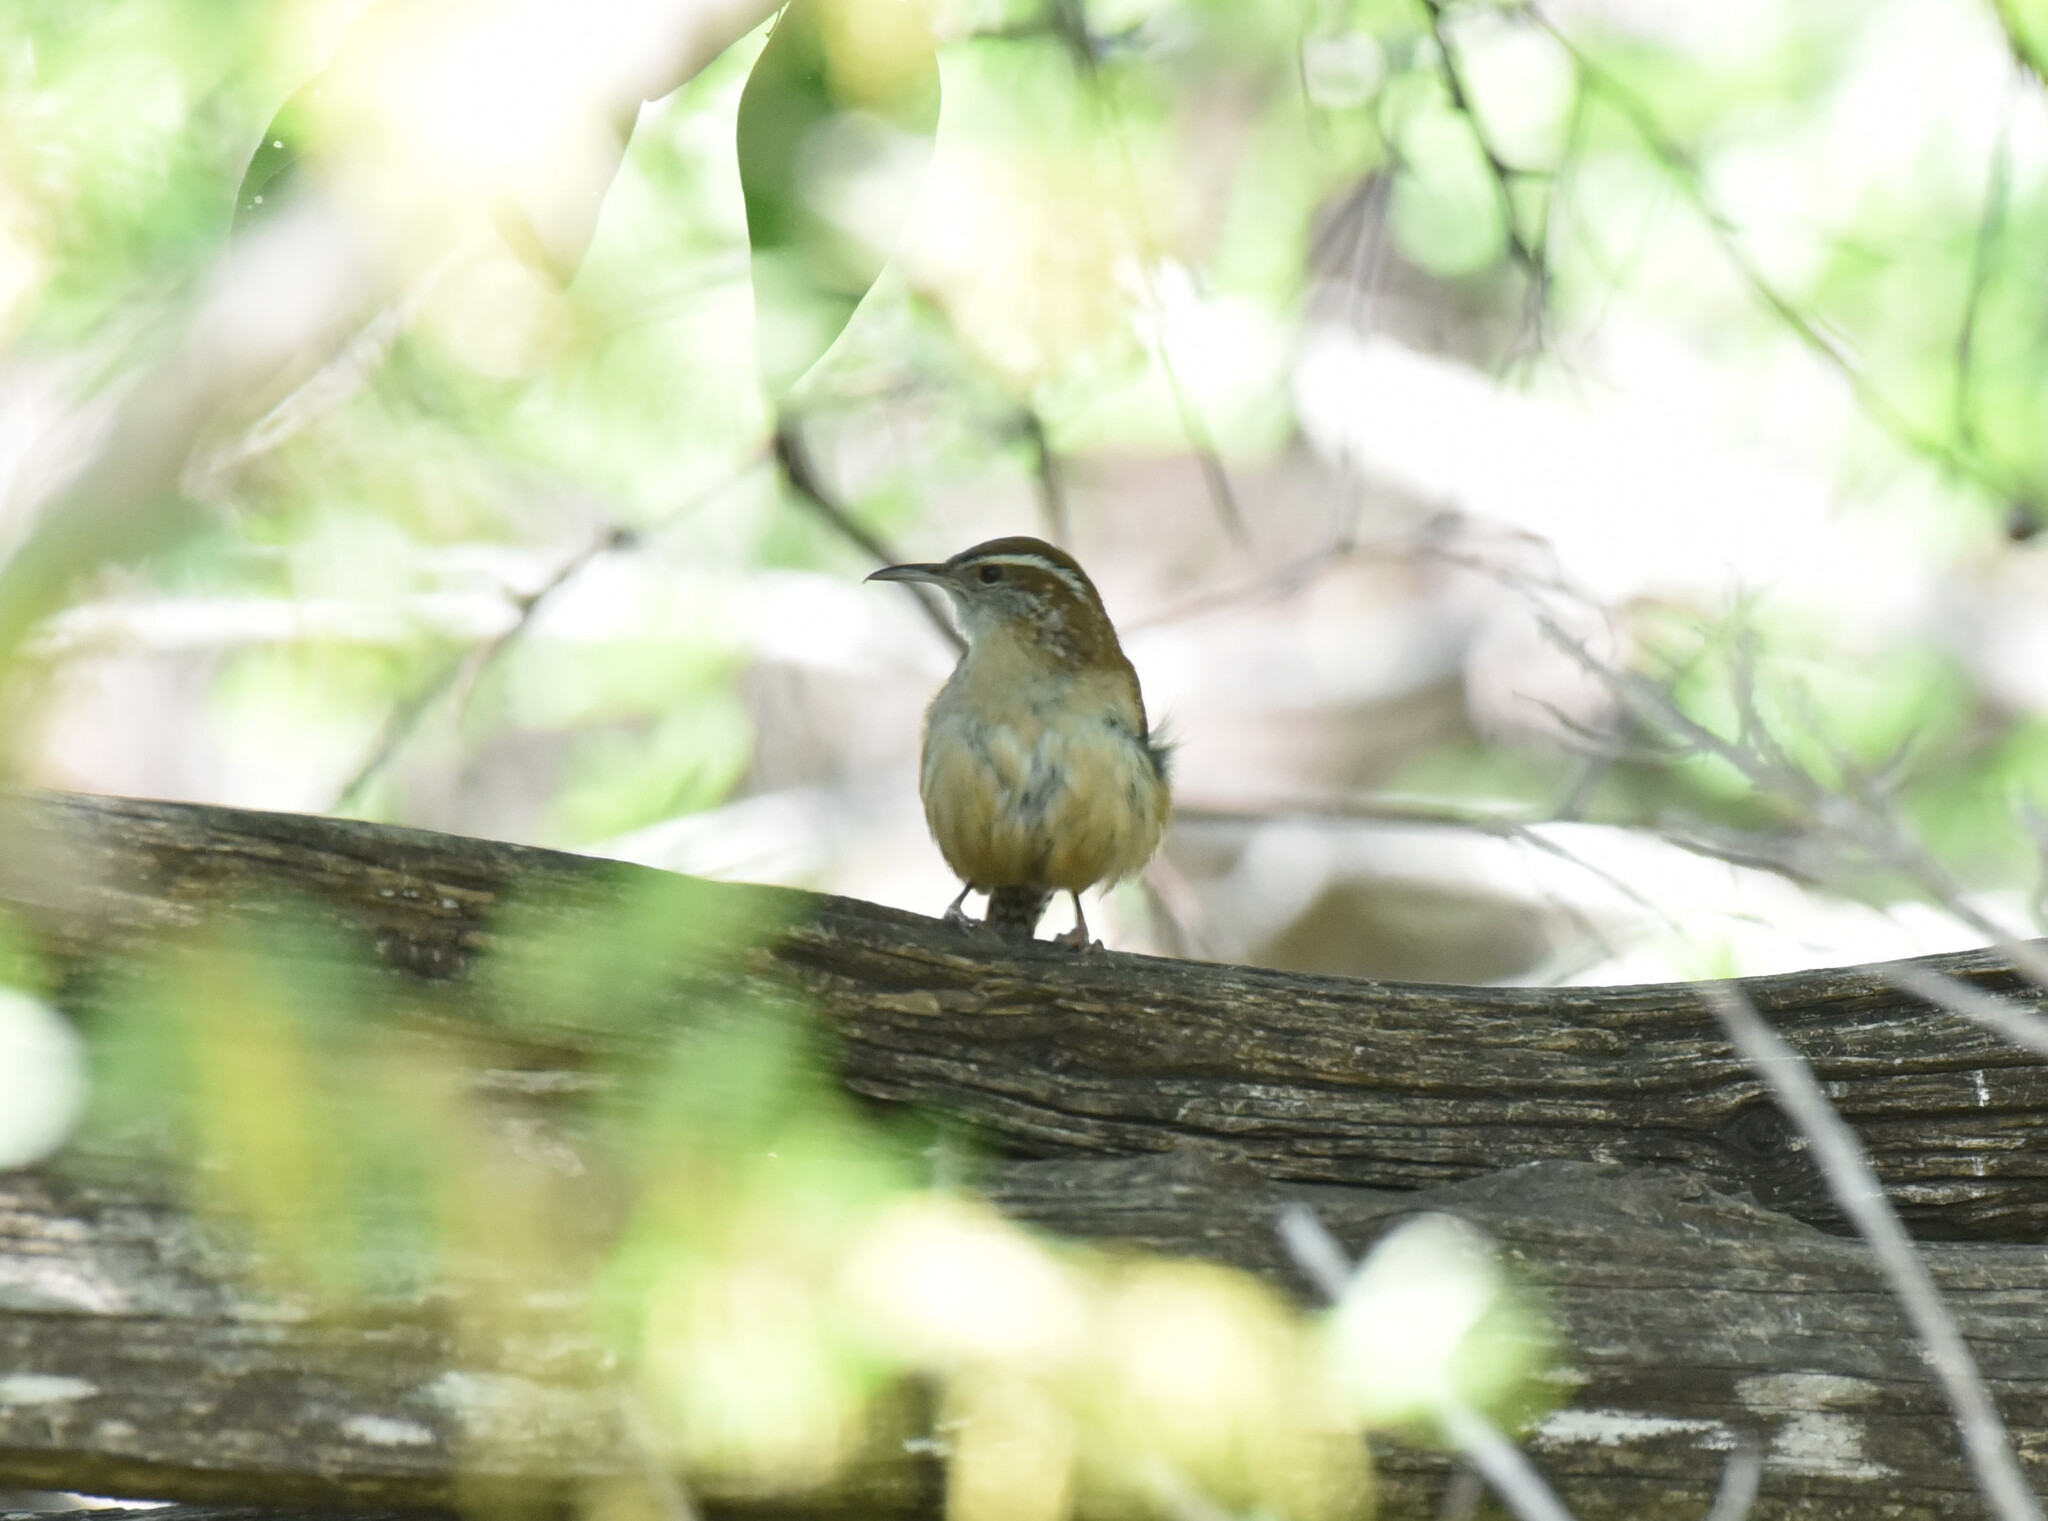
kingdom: Animalia
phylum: Chordata
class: Aves
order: Passeriformes
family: Troglodytidae
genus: Thryothorus
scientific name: Thryothorus ludovicianus
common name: Carolina wren
